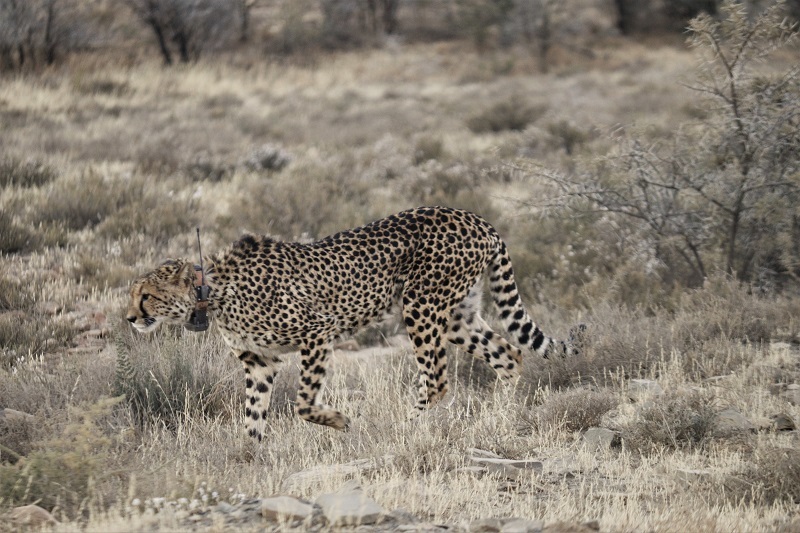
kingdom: Animalia
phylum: Chordata
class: Mammalia
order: Carnivora
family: Felidae
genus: Acinonyx
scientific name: Acinonyx jubatus
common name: Cheetah
